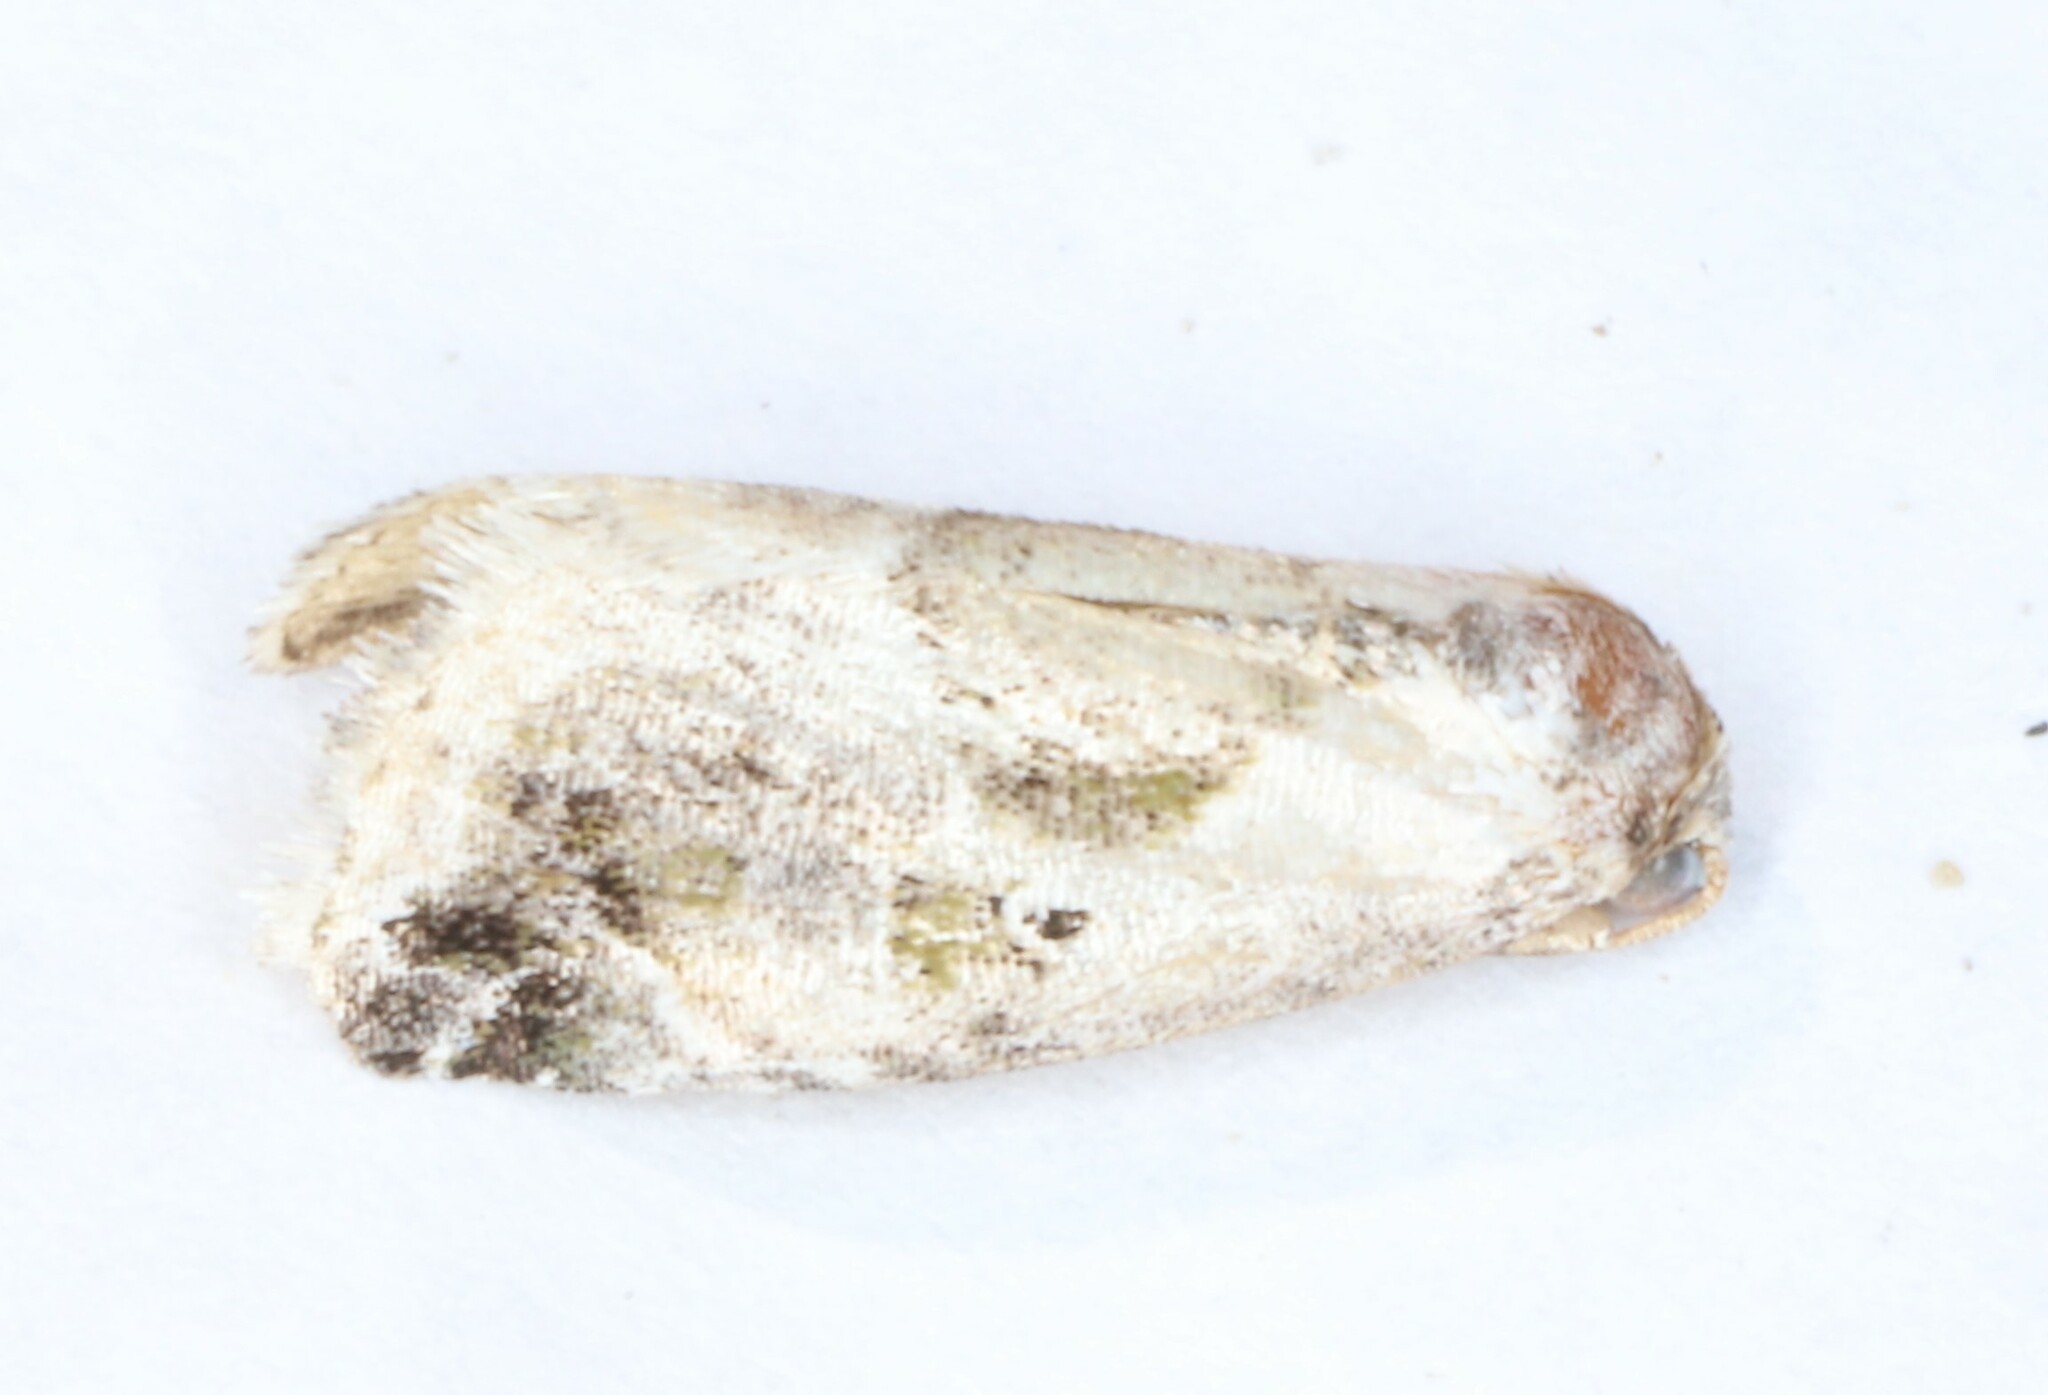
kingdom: Animalia
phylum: Arthropoda
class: Insecta
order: Lepidoptera
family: Noctuidae
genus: Maliattha
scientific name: Maliattha synochitis
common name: Black-dotted glyph
